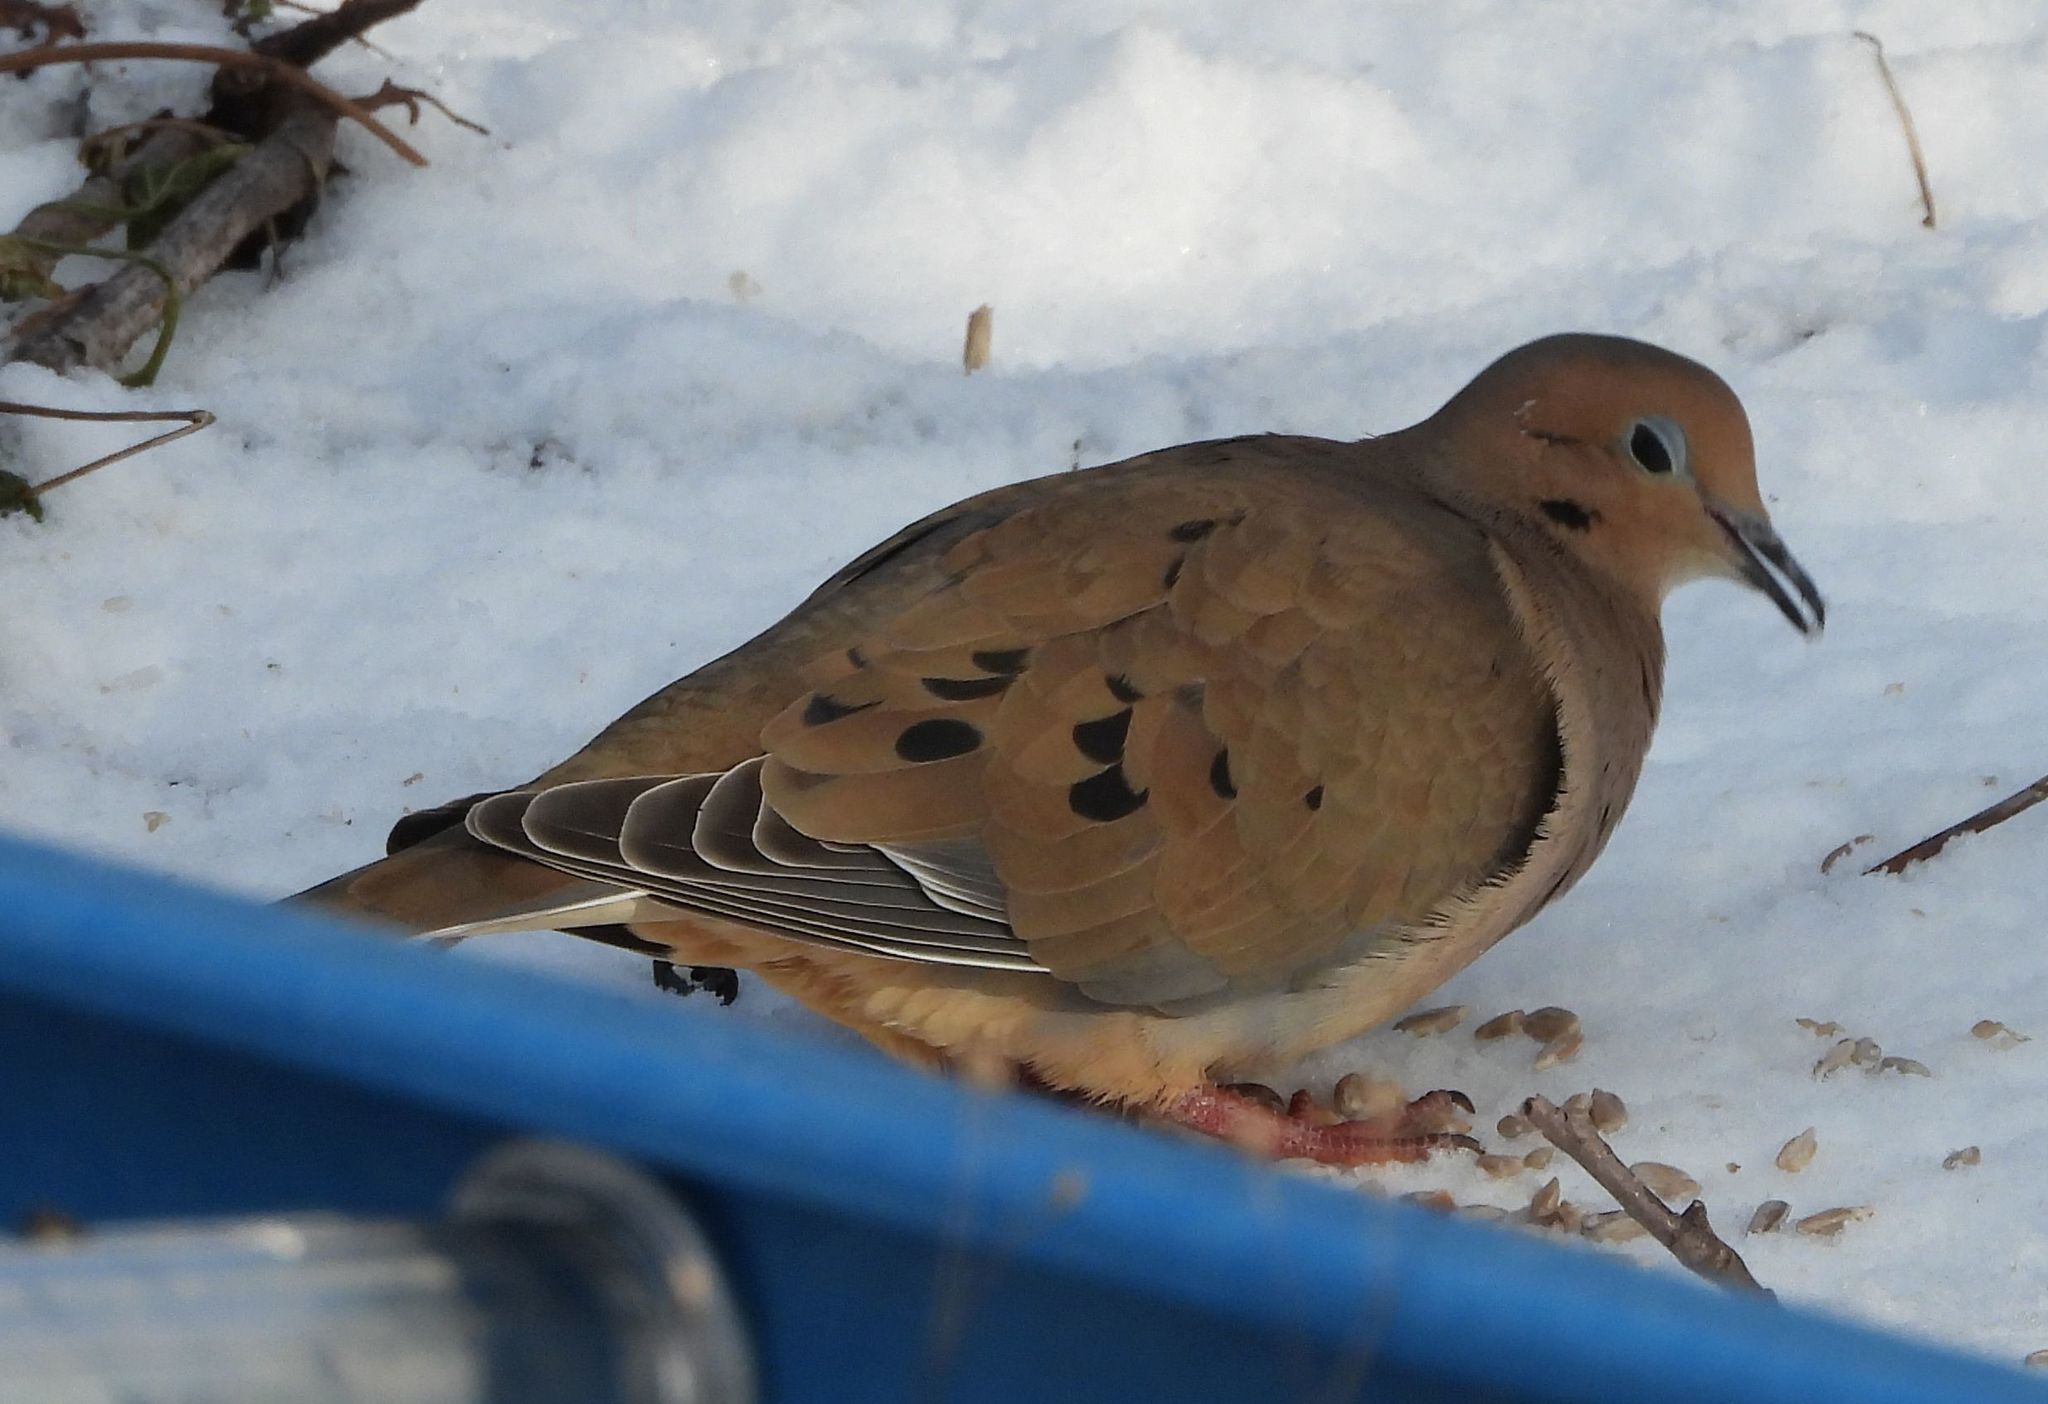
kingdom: Animalia
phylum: Chordata
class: Aves
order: Columbiformes
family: Columbidae
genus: Zenaida
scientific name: Zenaida macroura
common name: Mourning dove
